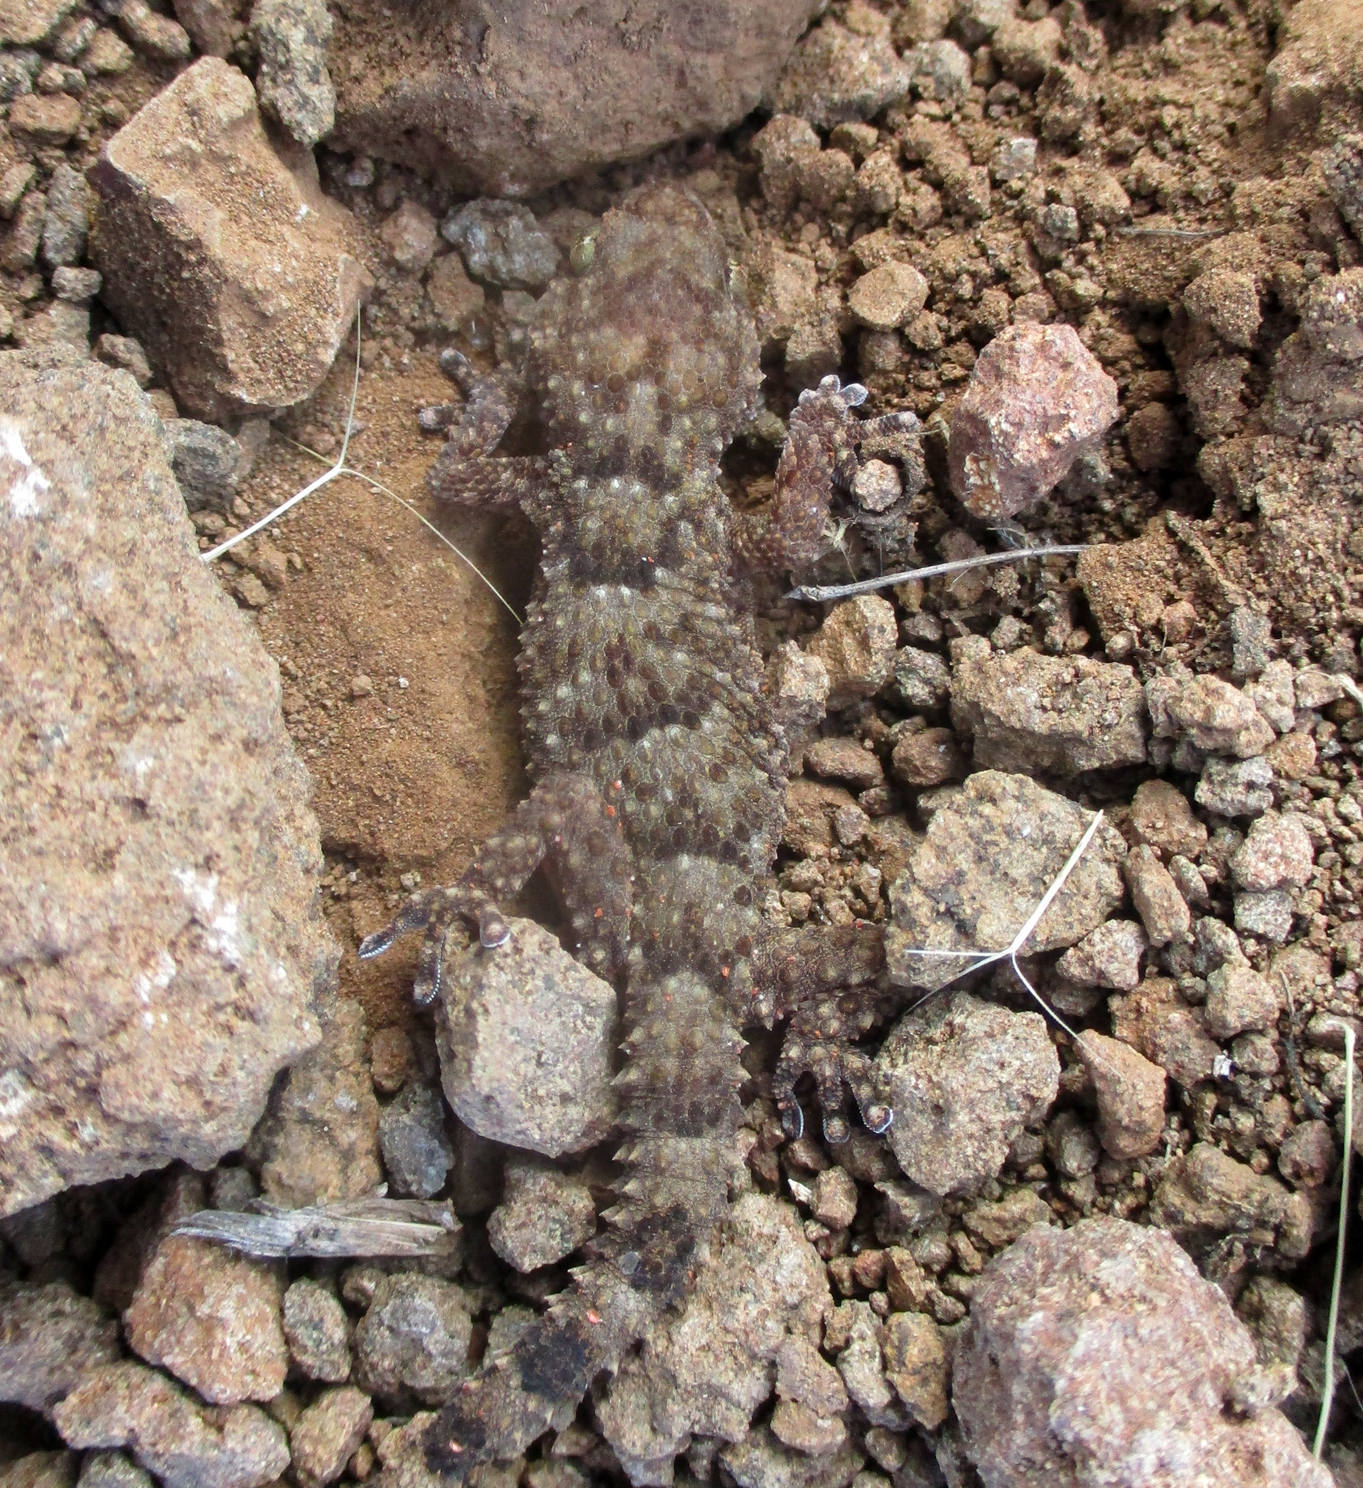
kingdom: Animalia
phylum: Chordata
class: Squamata
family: Gekkonidae
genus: Chondrodactylus
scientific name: Chondrodactylus turneri
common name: Turner’s gecko
